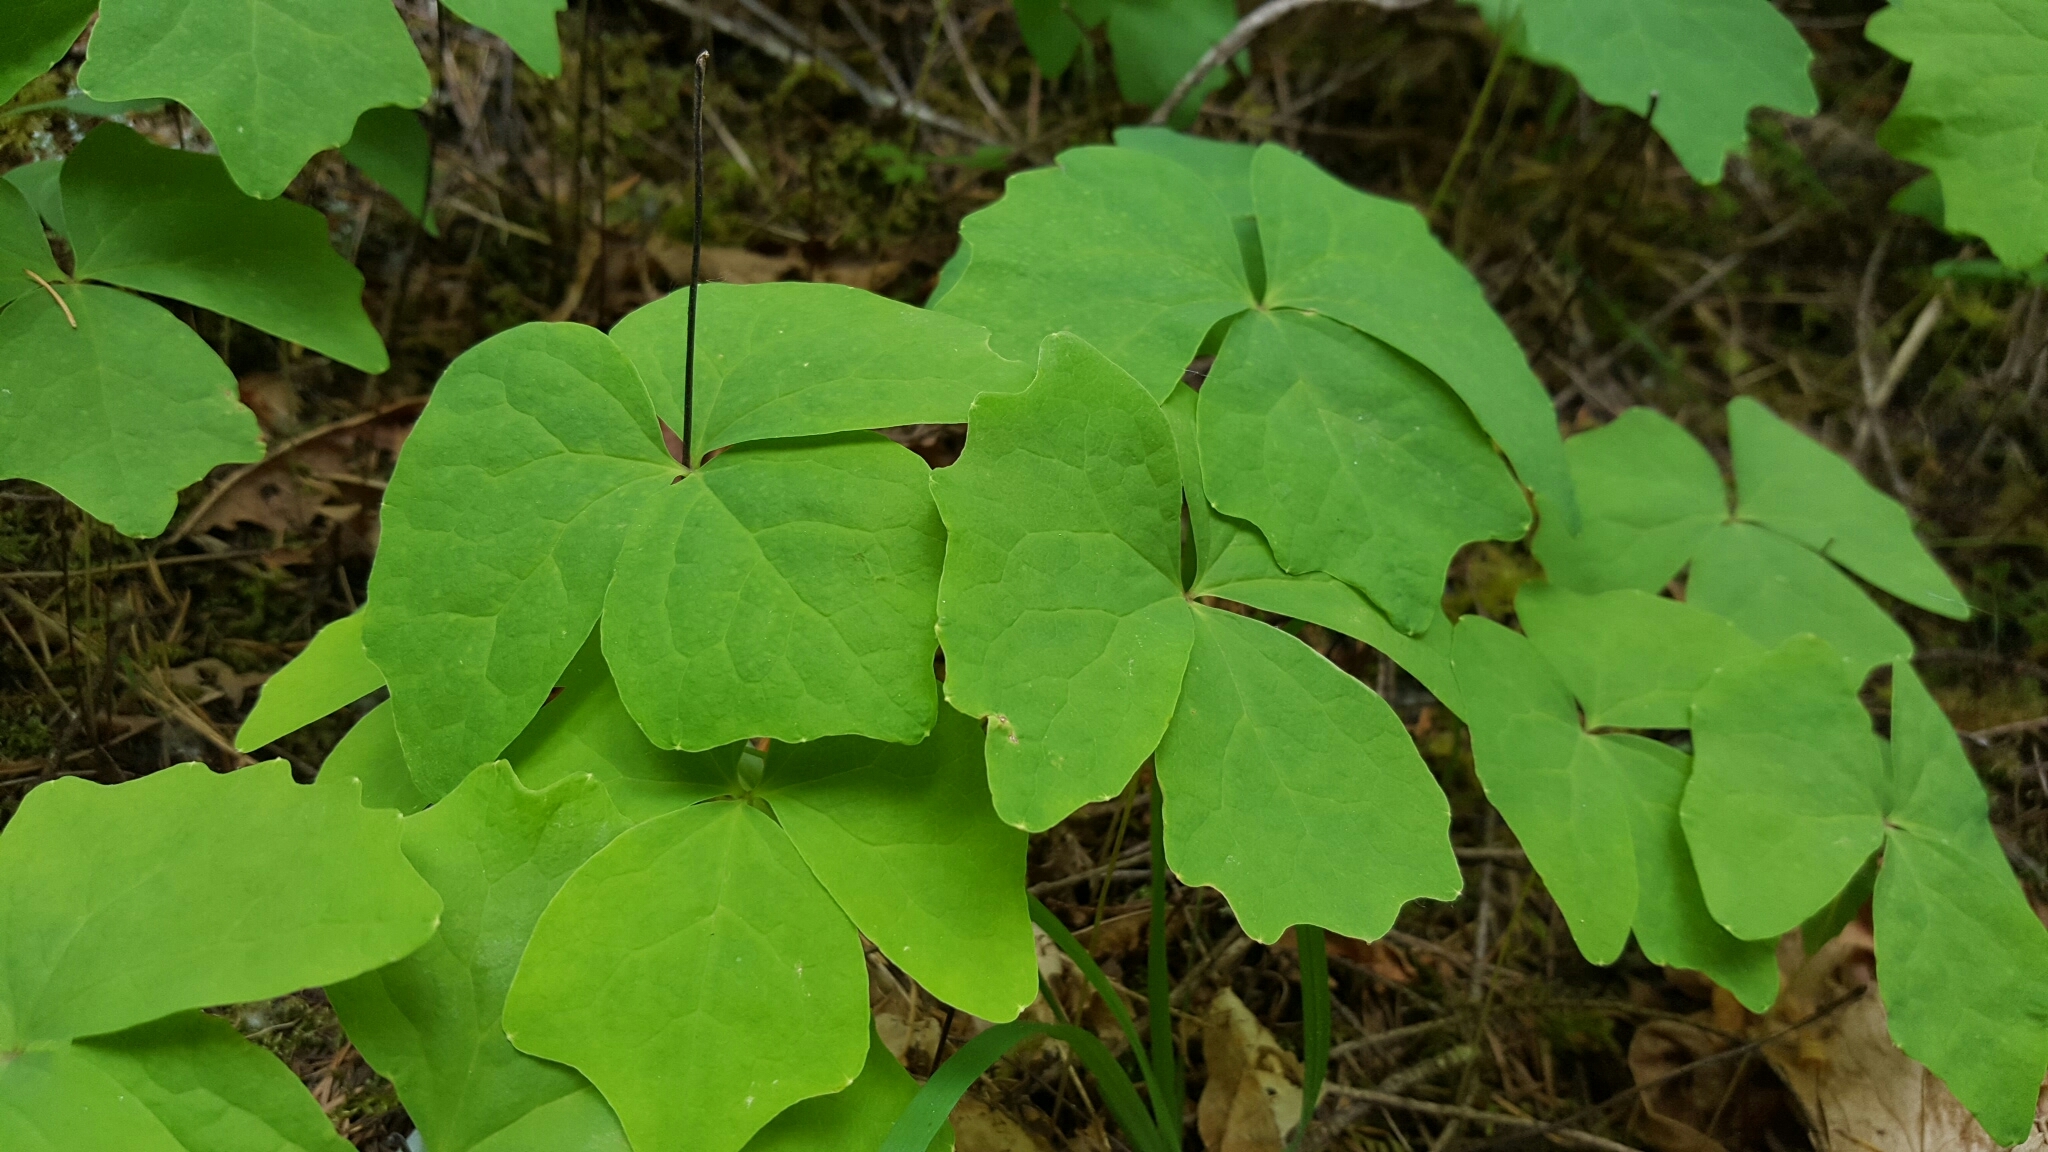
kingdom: Plantae
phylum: Tracheophyta
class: Magnoliopsida
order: Ranunculales
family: Berberidaceae
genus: Achlys
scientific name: Achlys triphylla
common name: Vanilla-leaf
